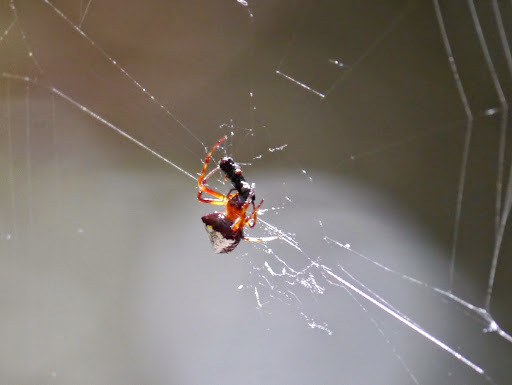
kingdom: Animalia
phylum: Arthropoda
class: Arachnida
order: Araneae
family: Araneidae
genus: Verrucosa
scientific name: Verrucosa arenata
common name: Orb weavers
